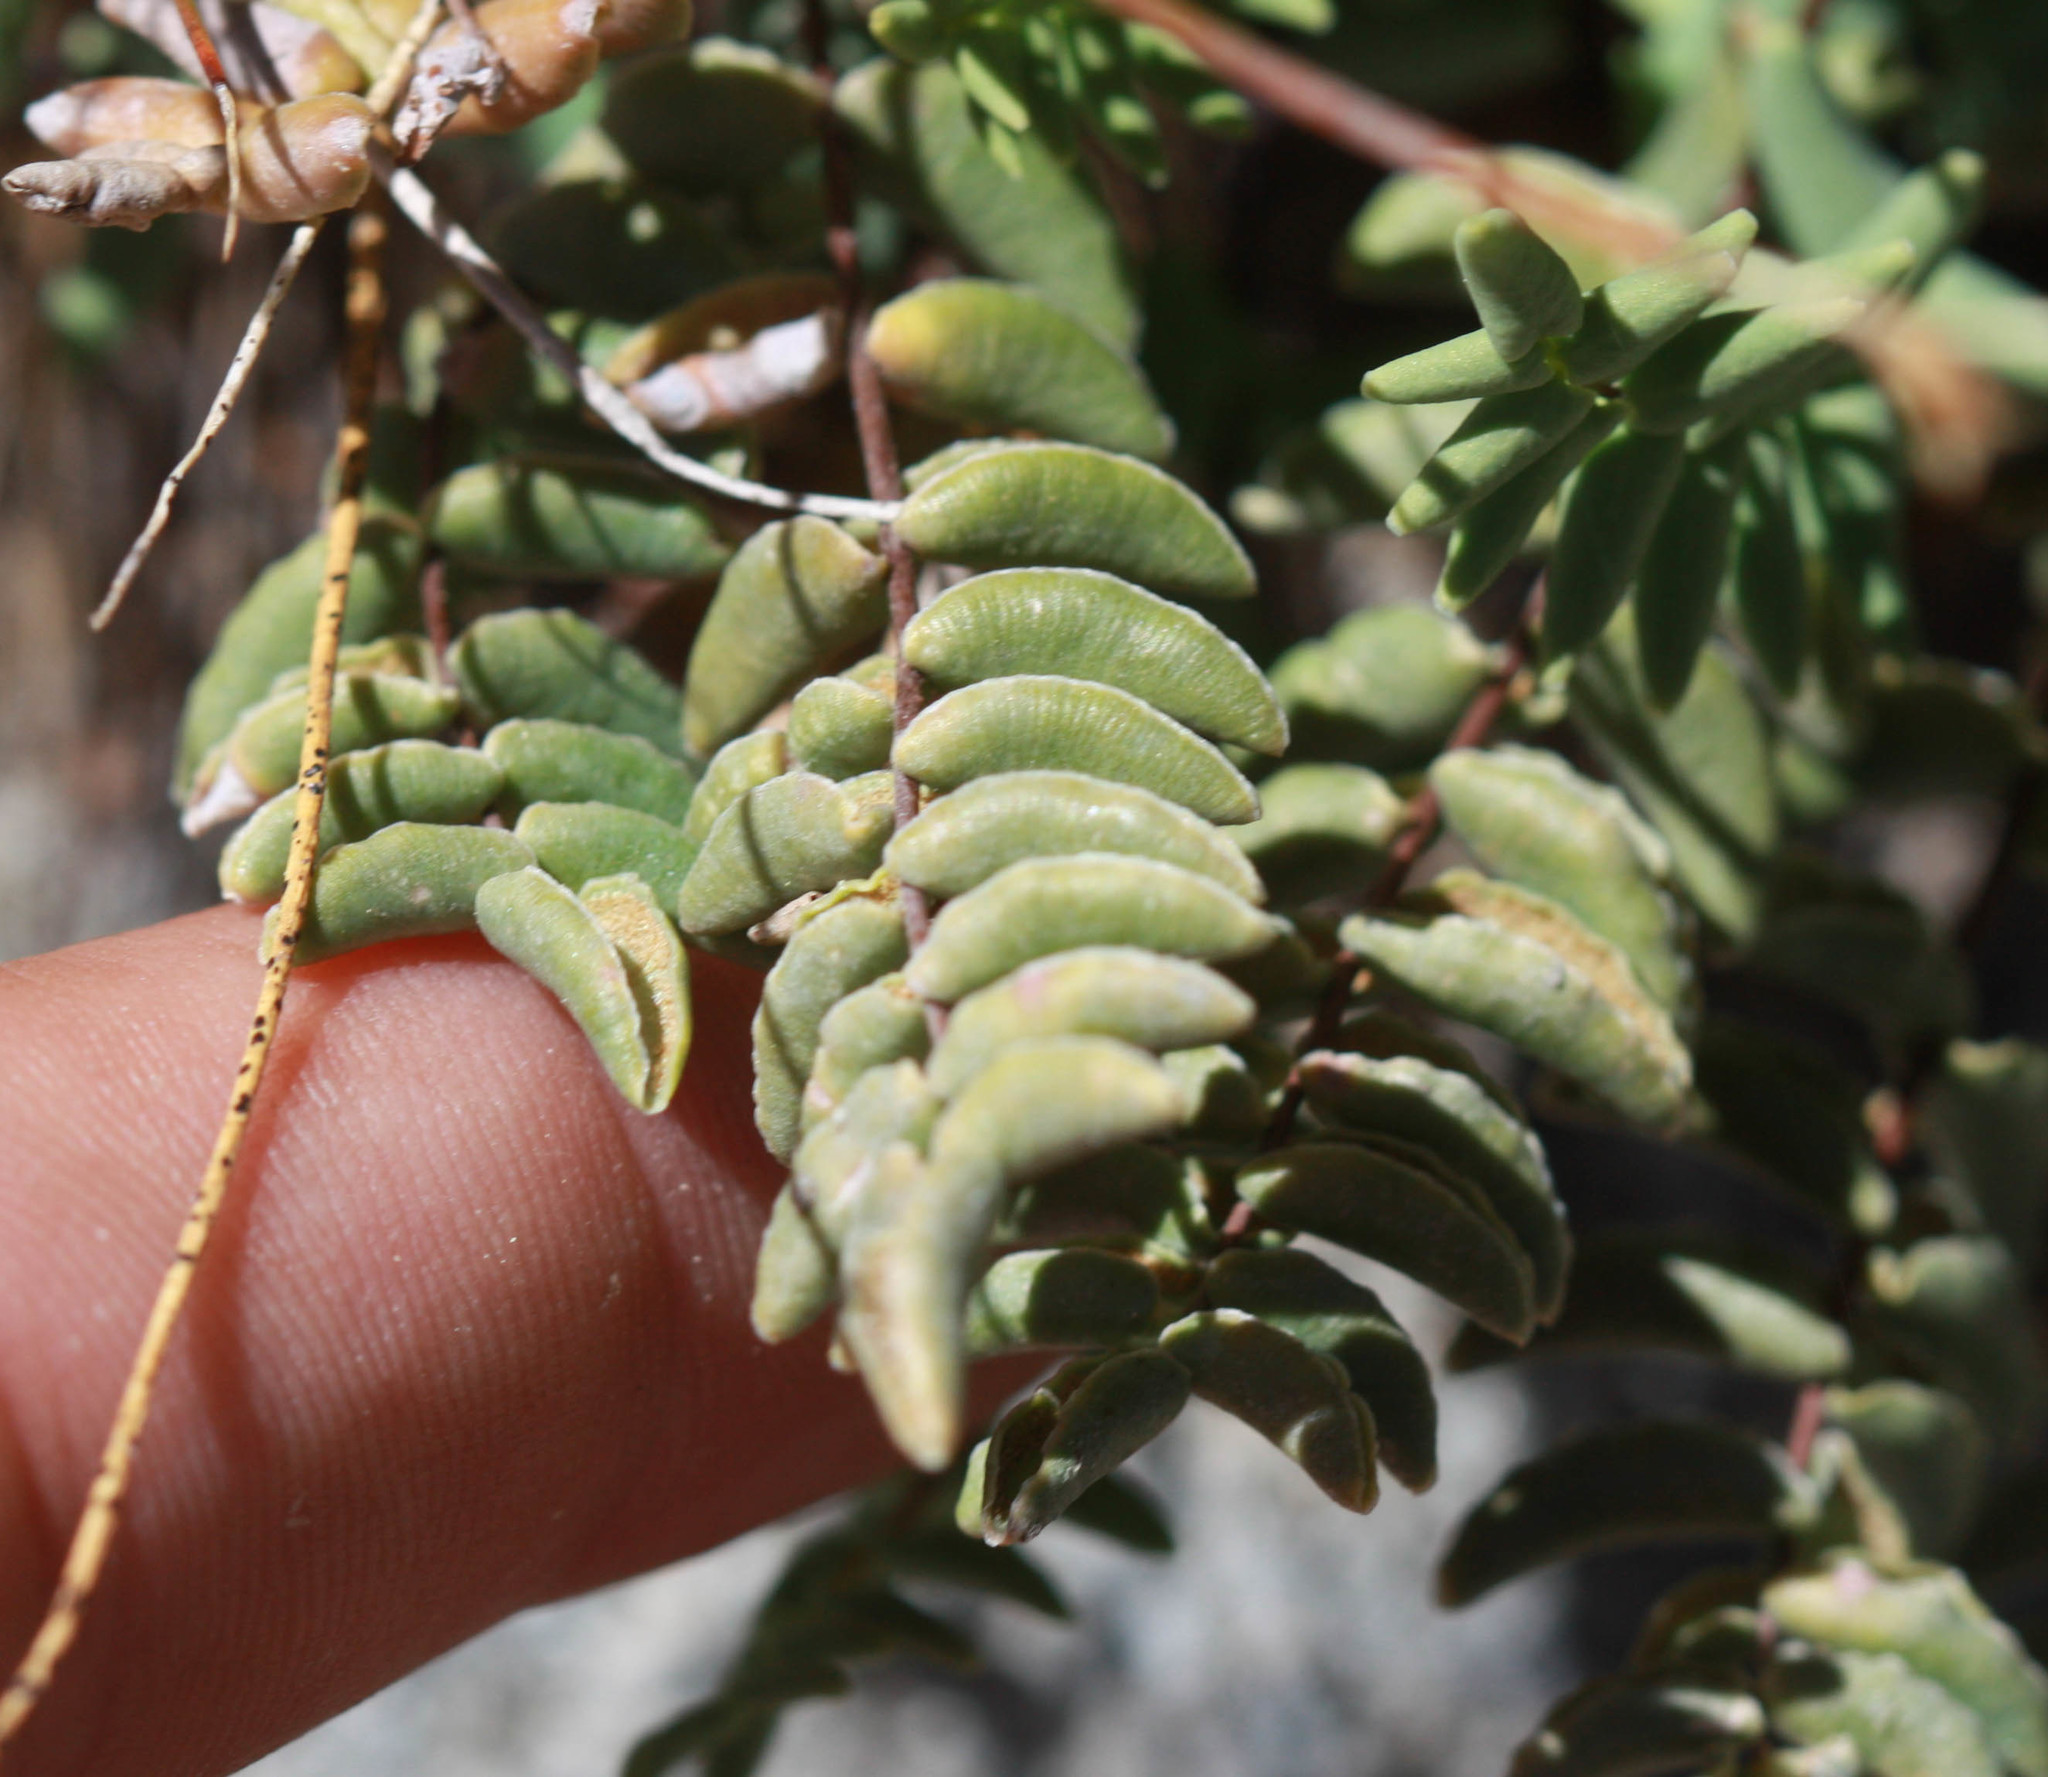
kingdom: Plantae
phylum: Tracheophyta
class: Polypodiopsida
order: Polypodiales
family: Pteridaceae
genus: Pellaea
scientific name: Pellaea bridgesii
